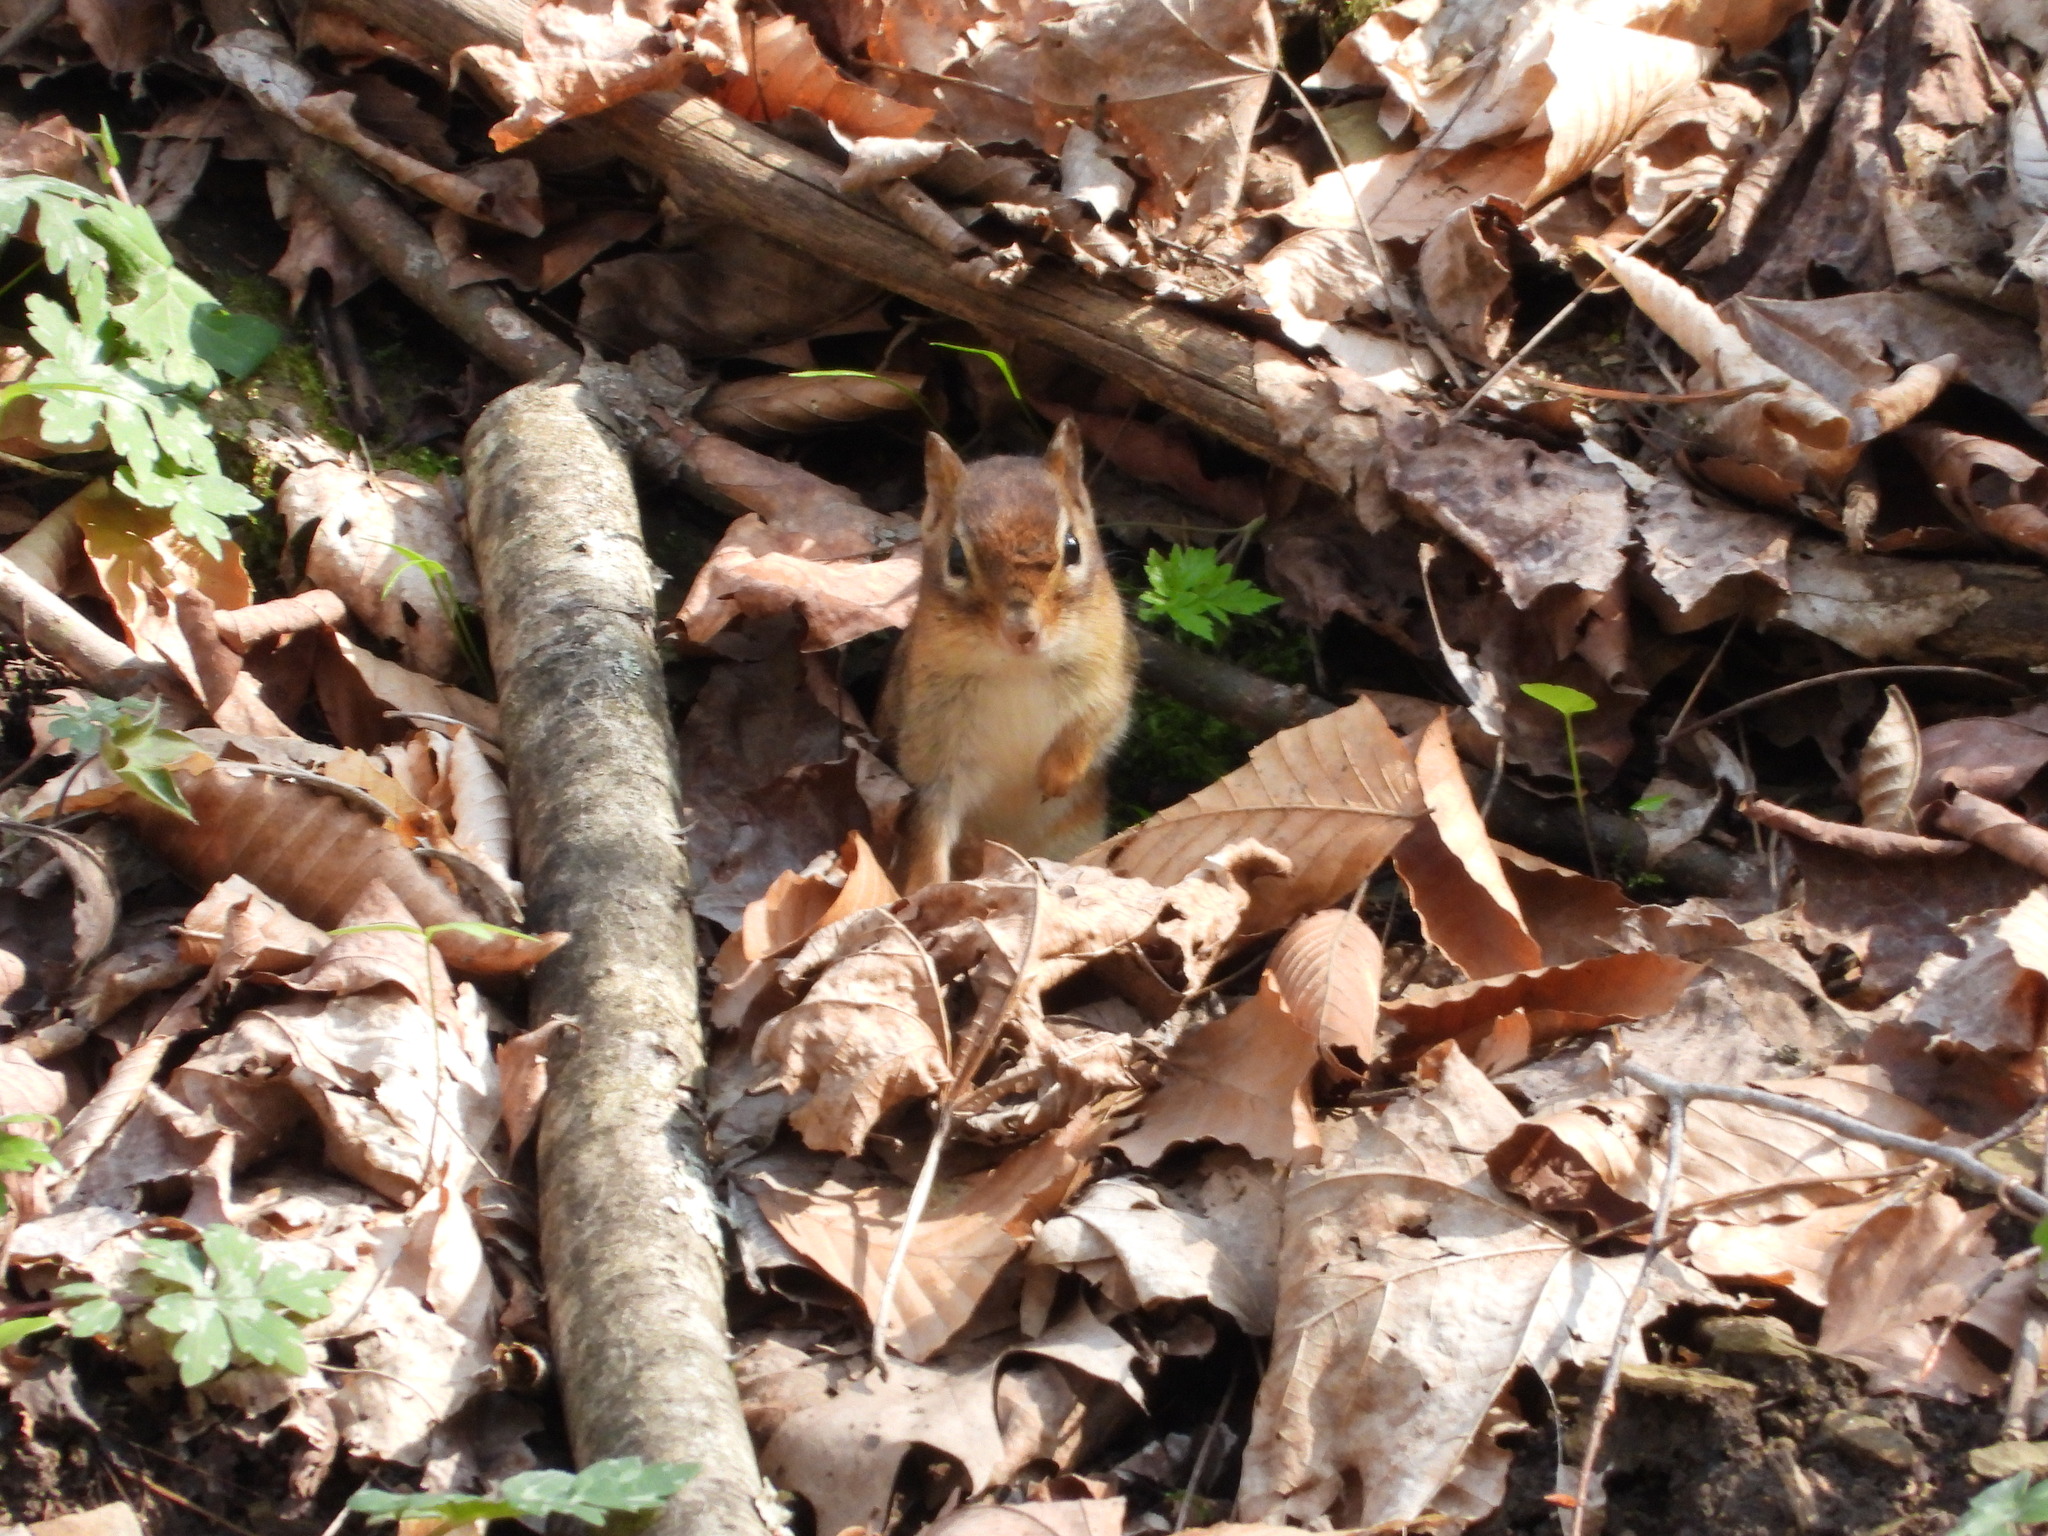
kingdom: Animalia
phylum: Chordata
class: Mammalia
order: Rodentia
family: Sciuridae
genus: Tamias
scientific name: Tamias striatus
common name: Eastern chipmunk
